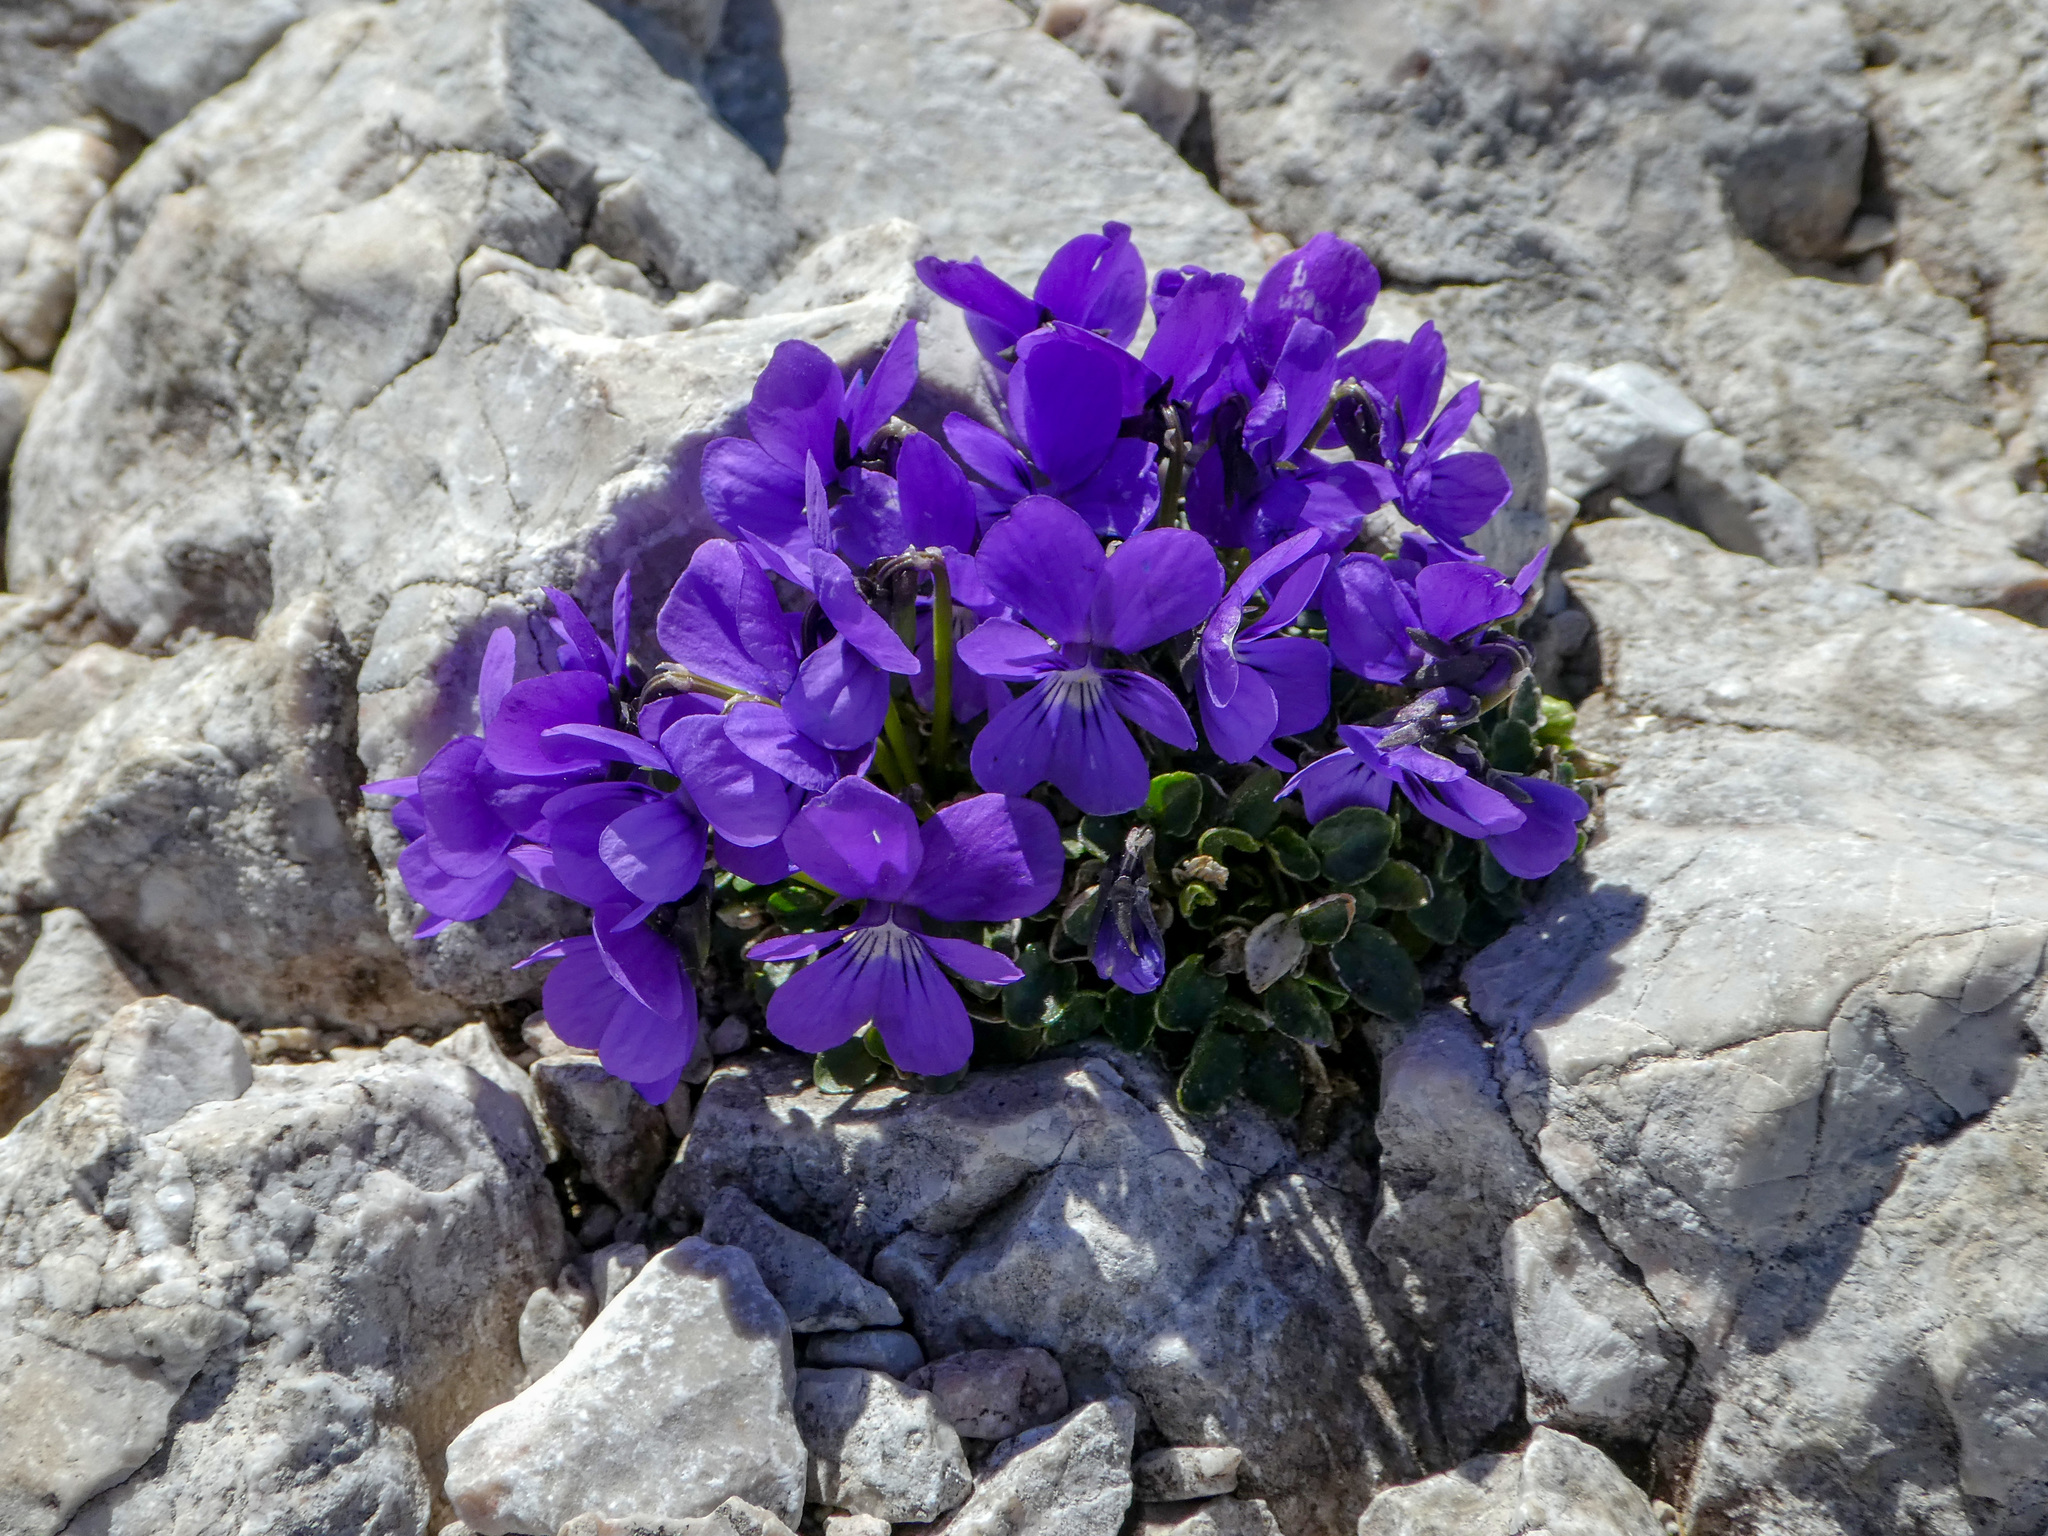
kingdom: Plantae
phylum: Tracheophyta
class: Magnoliopsida
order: Malpighiales
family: Violaceae
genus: Viola
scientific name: Viola alpina
